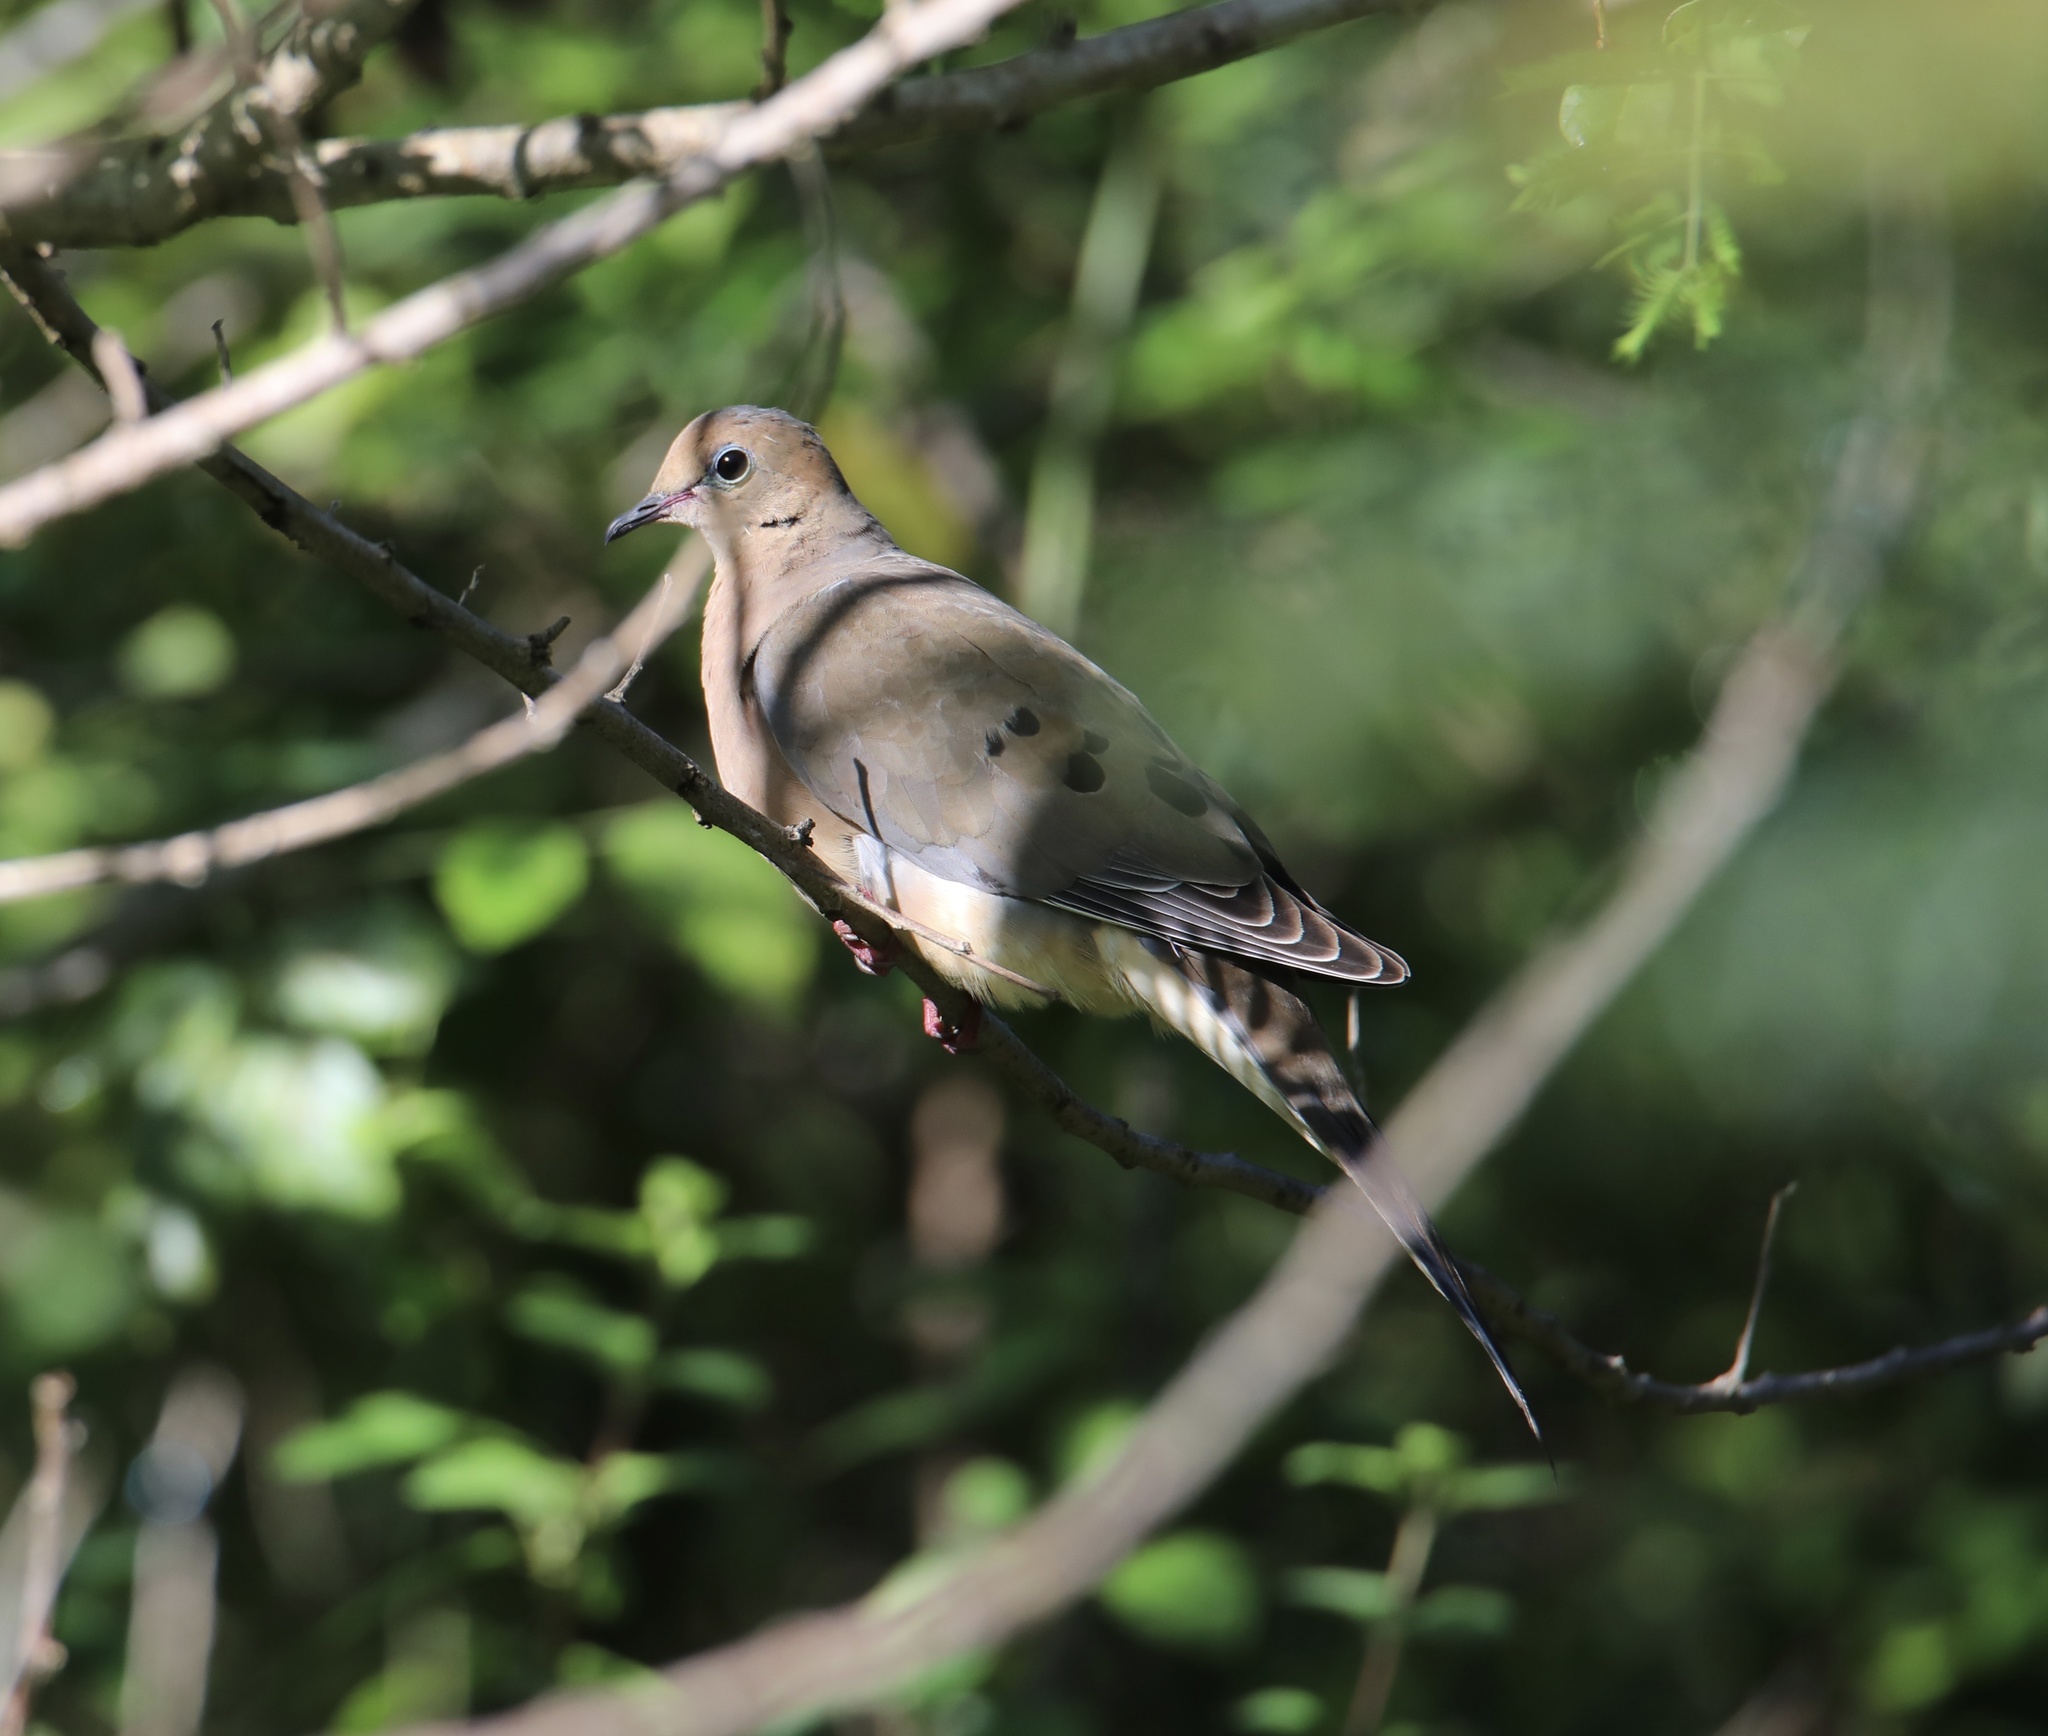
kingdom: Animalia
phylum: Chordata
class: Aves
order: Columbiformes
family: Columbidae
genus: Zenaida
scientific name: Zenaida macroura
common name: Mourning dove
